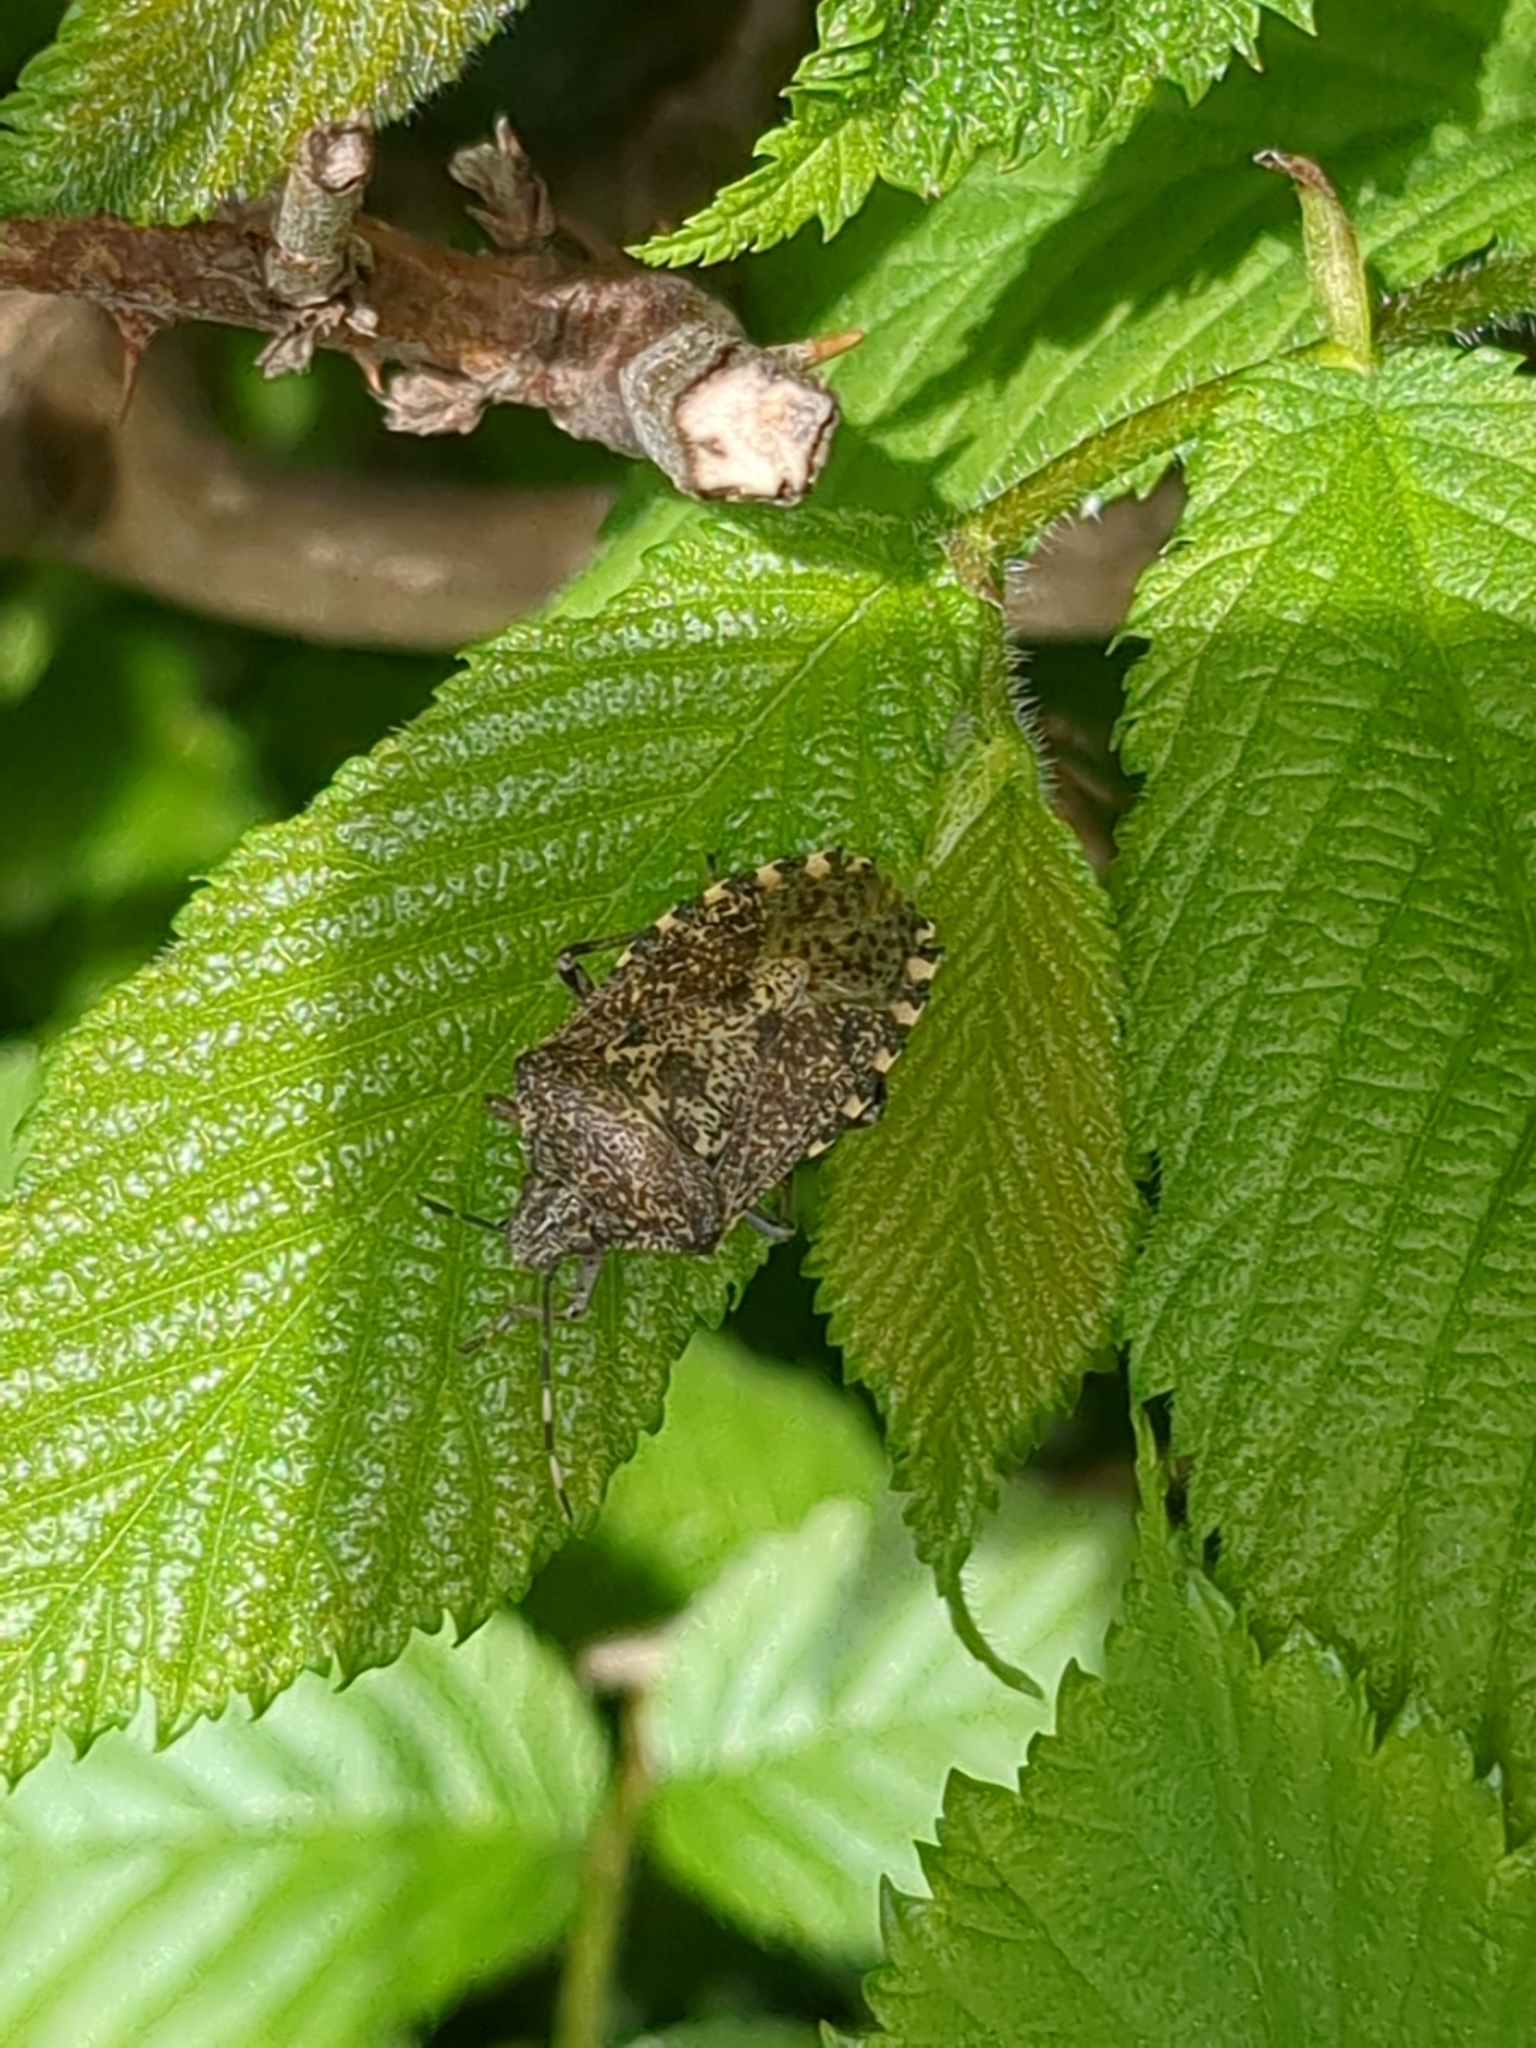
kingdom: Animalia
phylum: Arthropoda
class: Insecta
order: Hemiptera
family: Pentatomidae
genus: Rhaphigaster
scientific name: Rhaphigaster nebulosa
